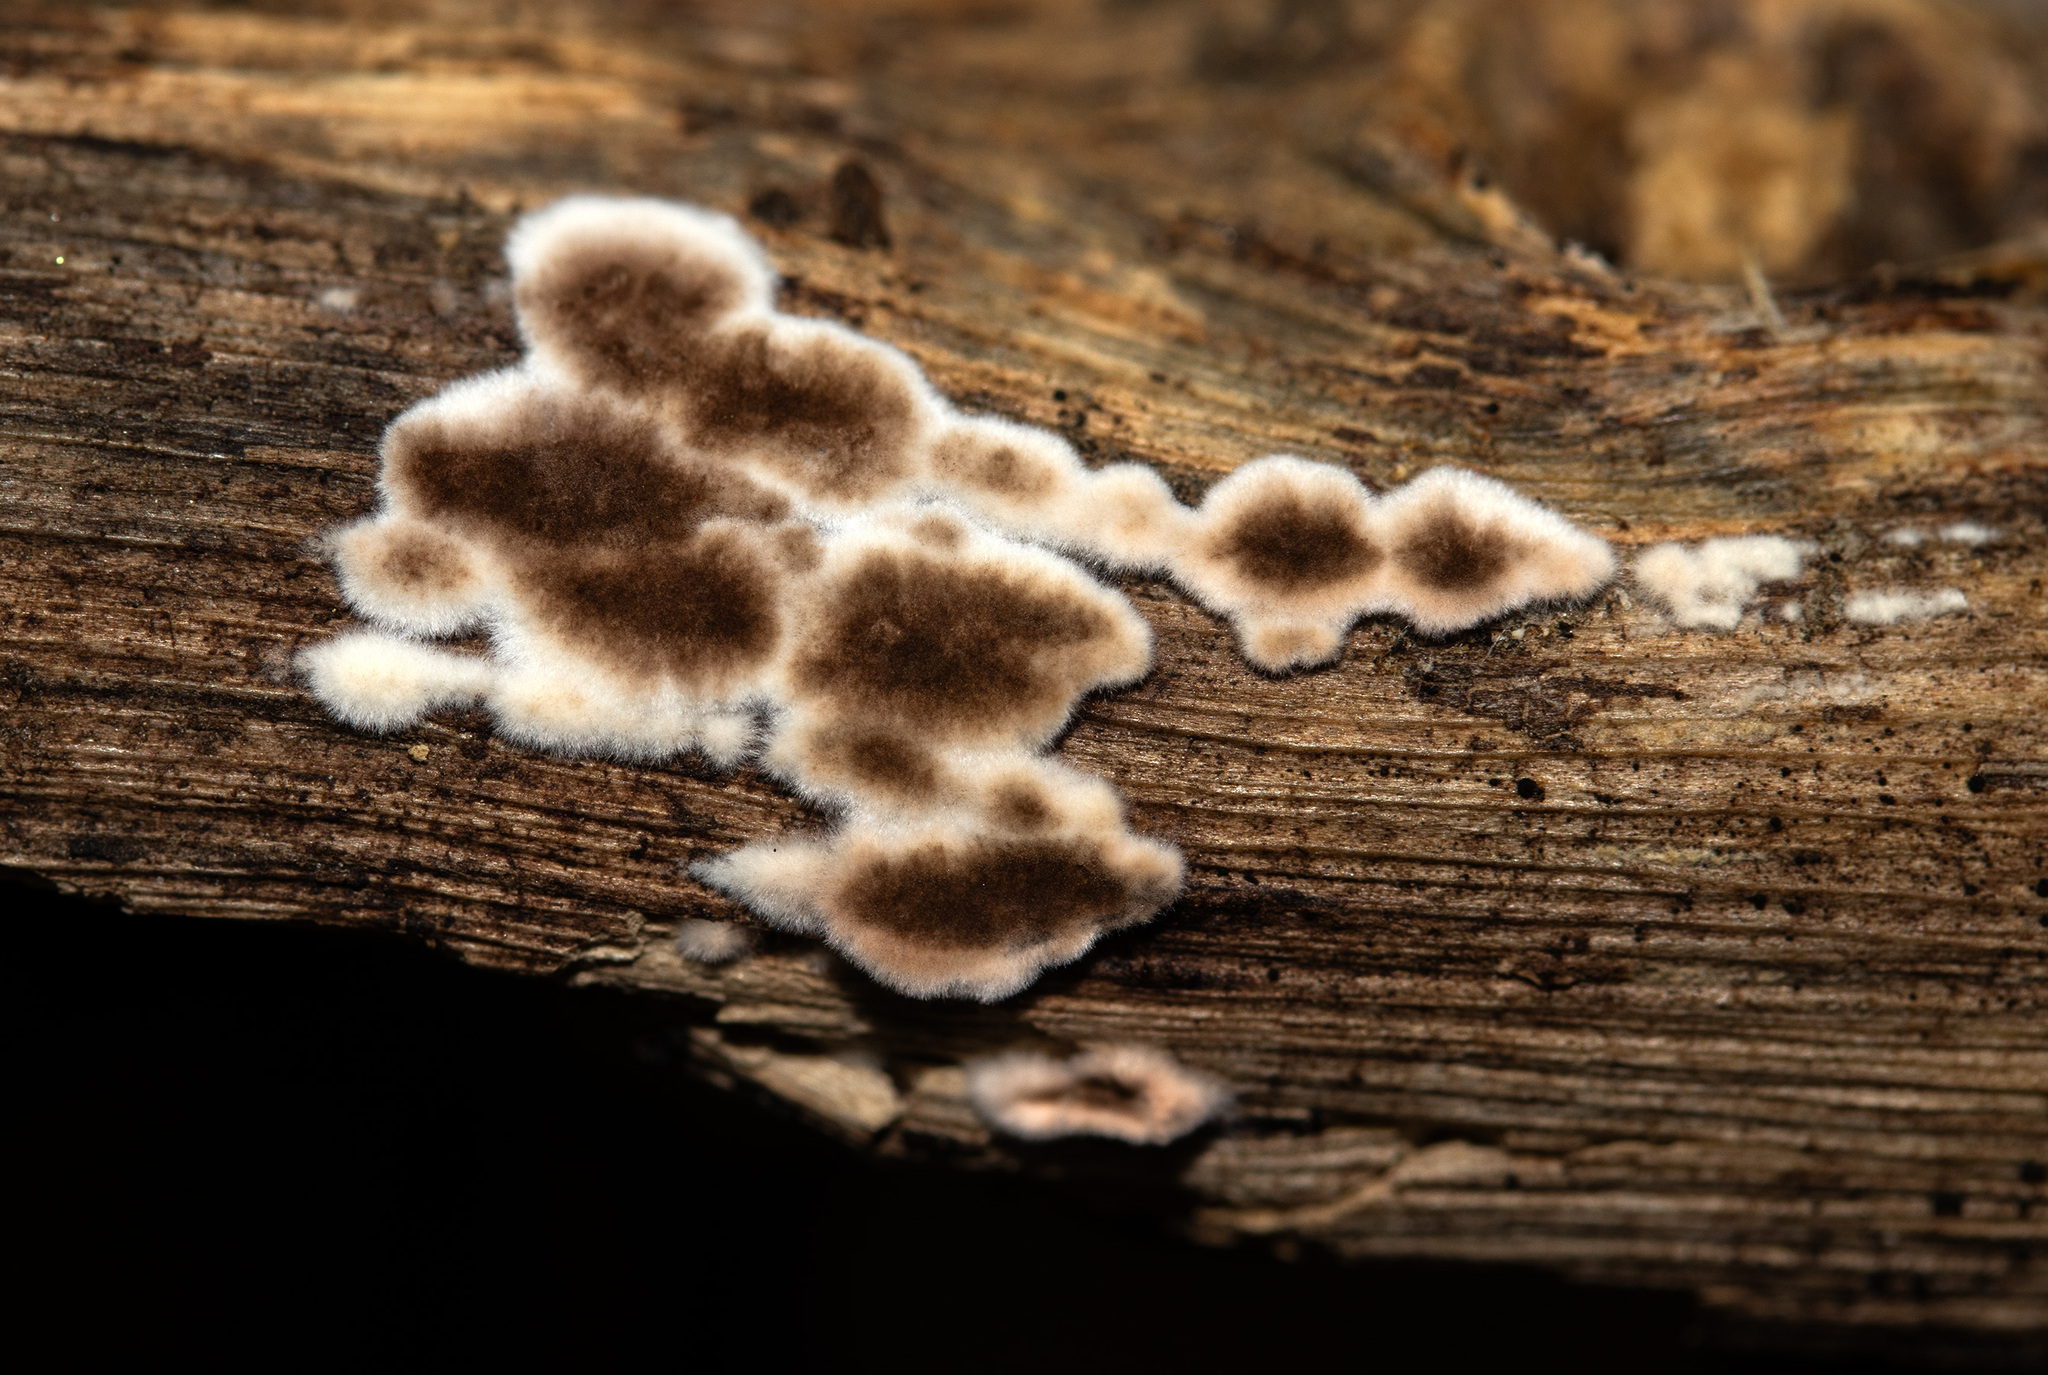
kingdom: Fungi
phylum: Basidiomycota
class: Agaricomycetes
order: Russulales
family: Peniophoraceae
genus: Peniophora
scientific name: Peniophora albobadia
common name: Giraffe spots
